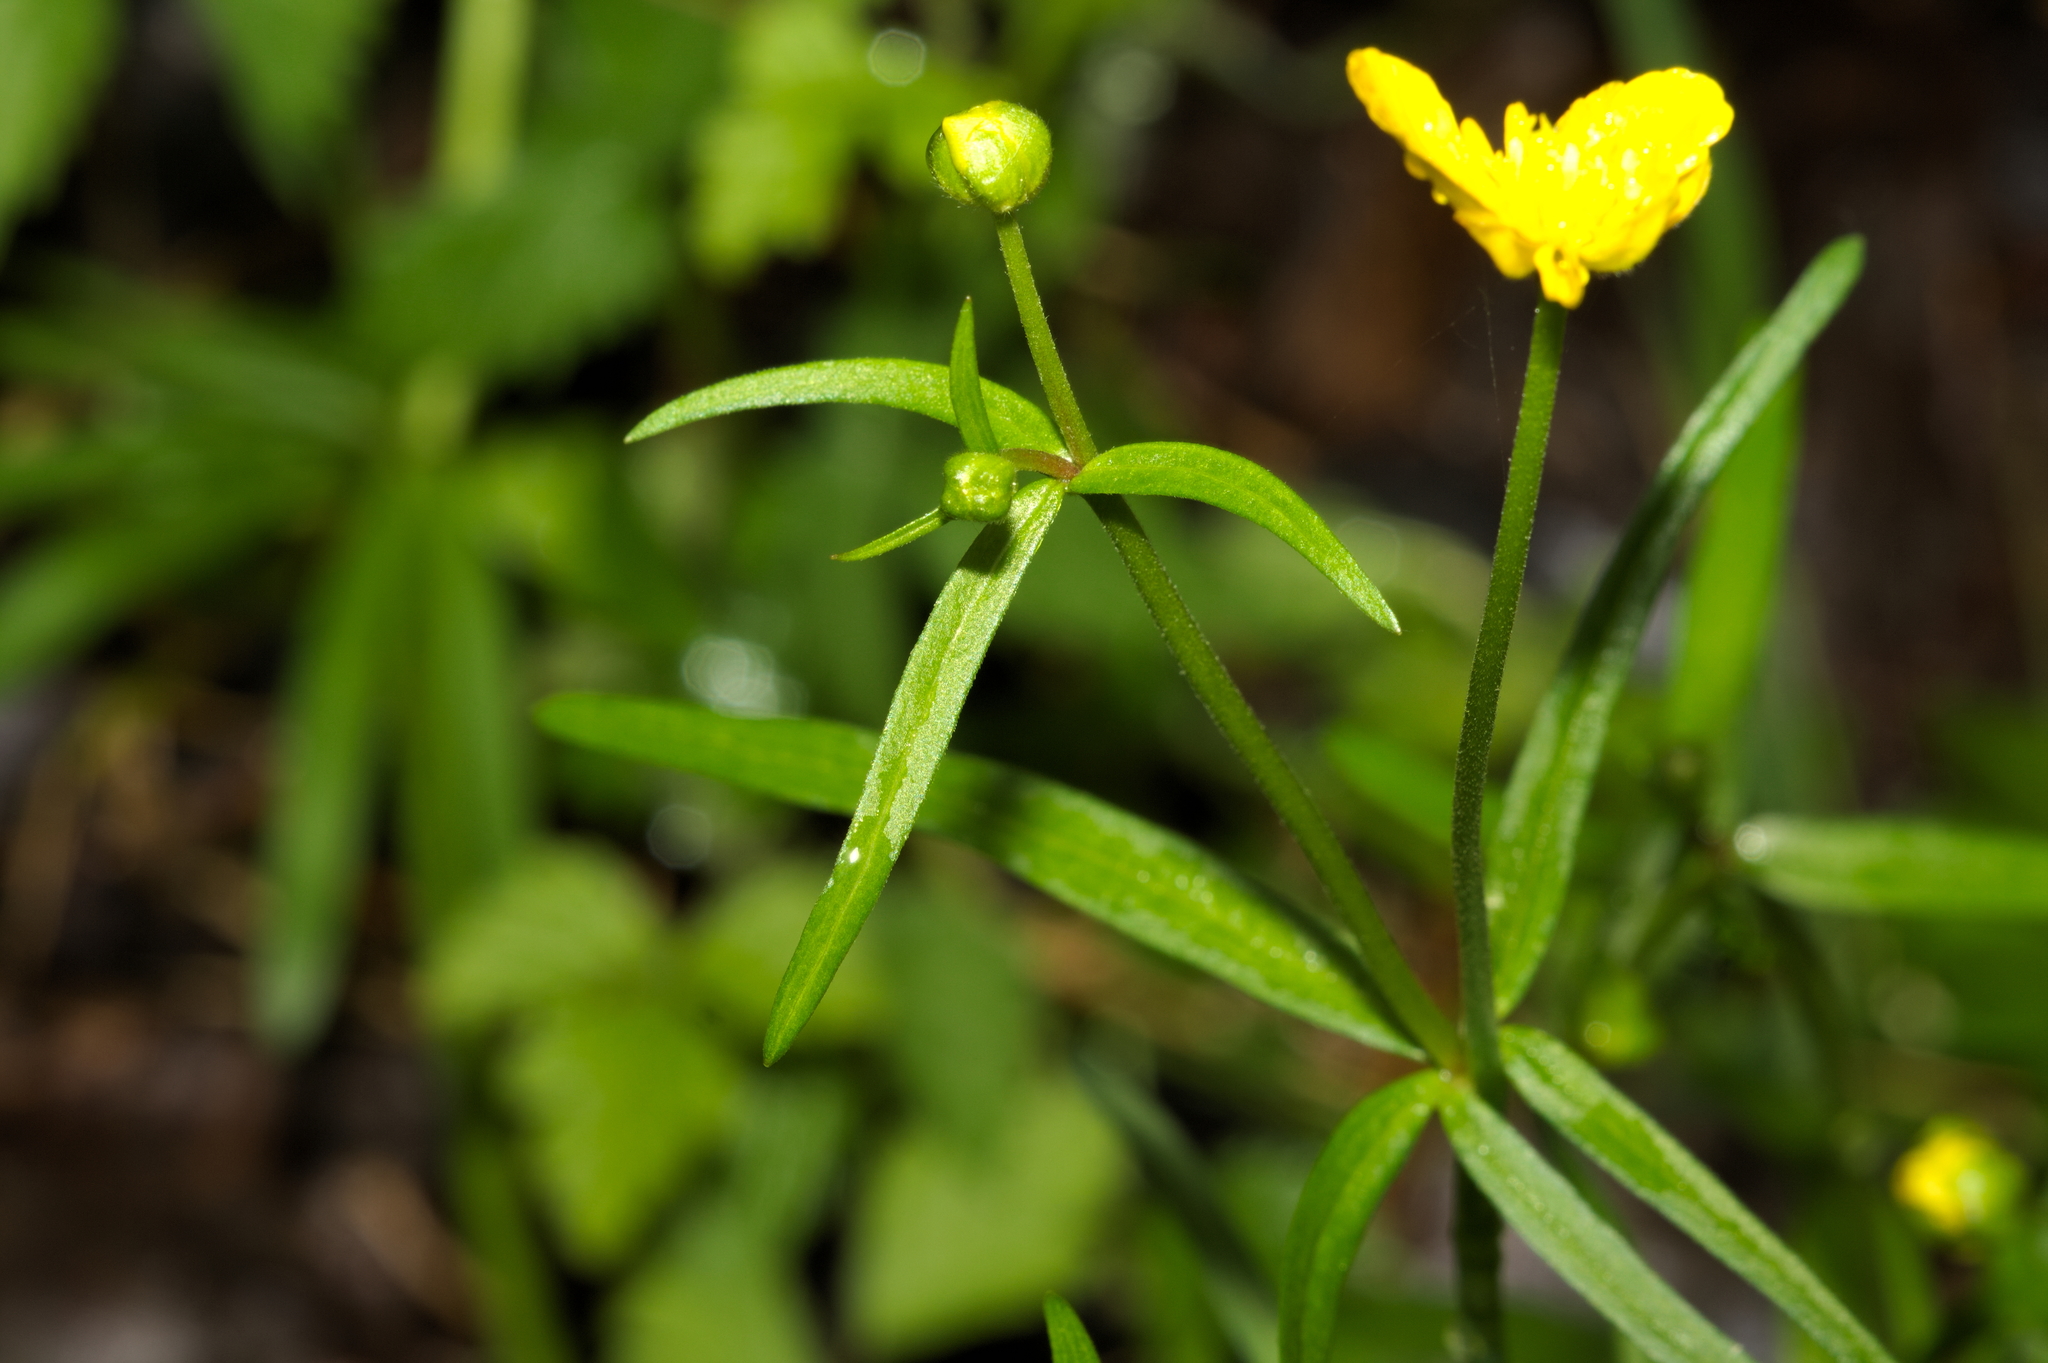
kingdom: Plantae
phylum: Tracheophyta
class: Magnoliopsida
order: Ranunculales
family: Ranunculaceae
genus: Ranunculus
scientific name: Ranunculus auricomus
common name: Goldilocks buttercup
